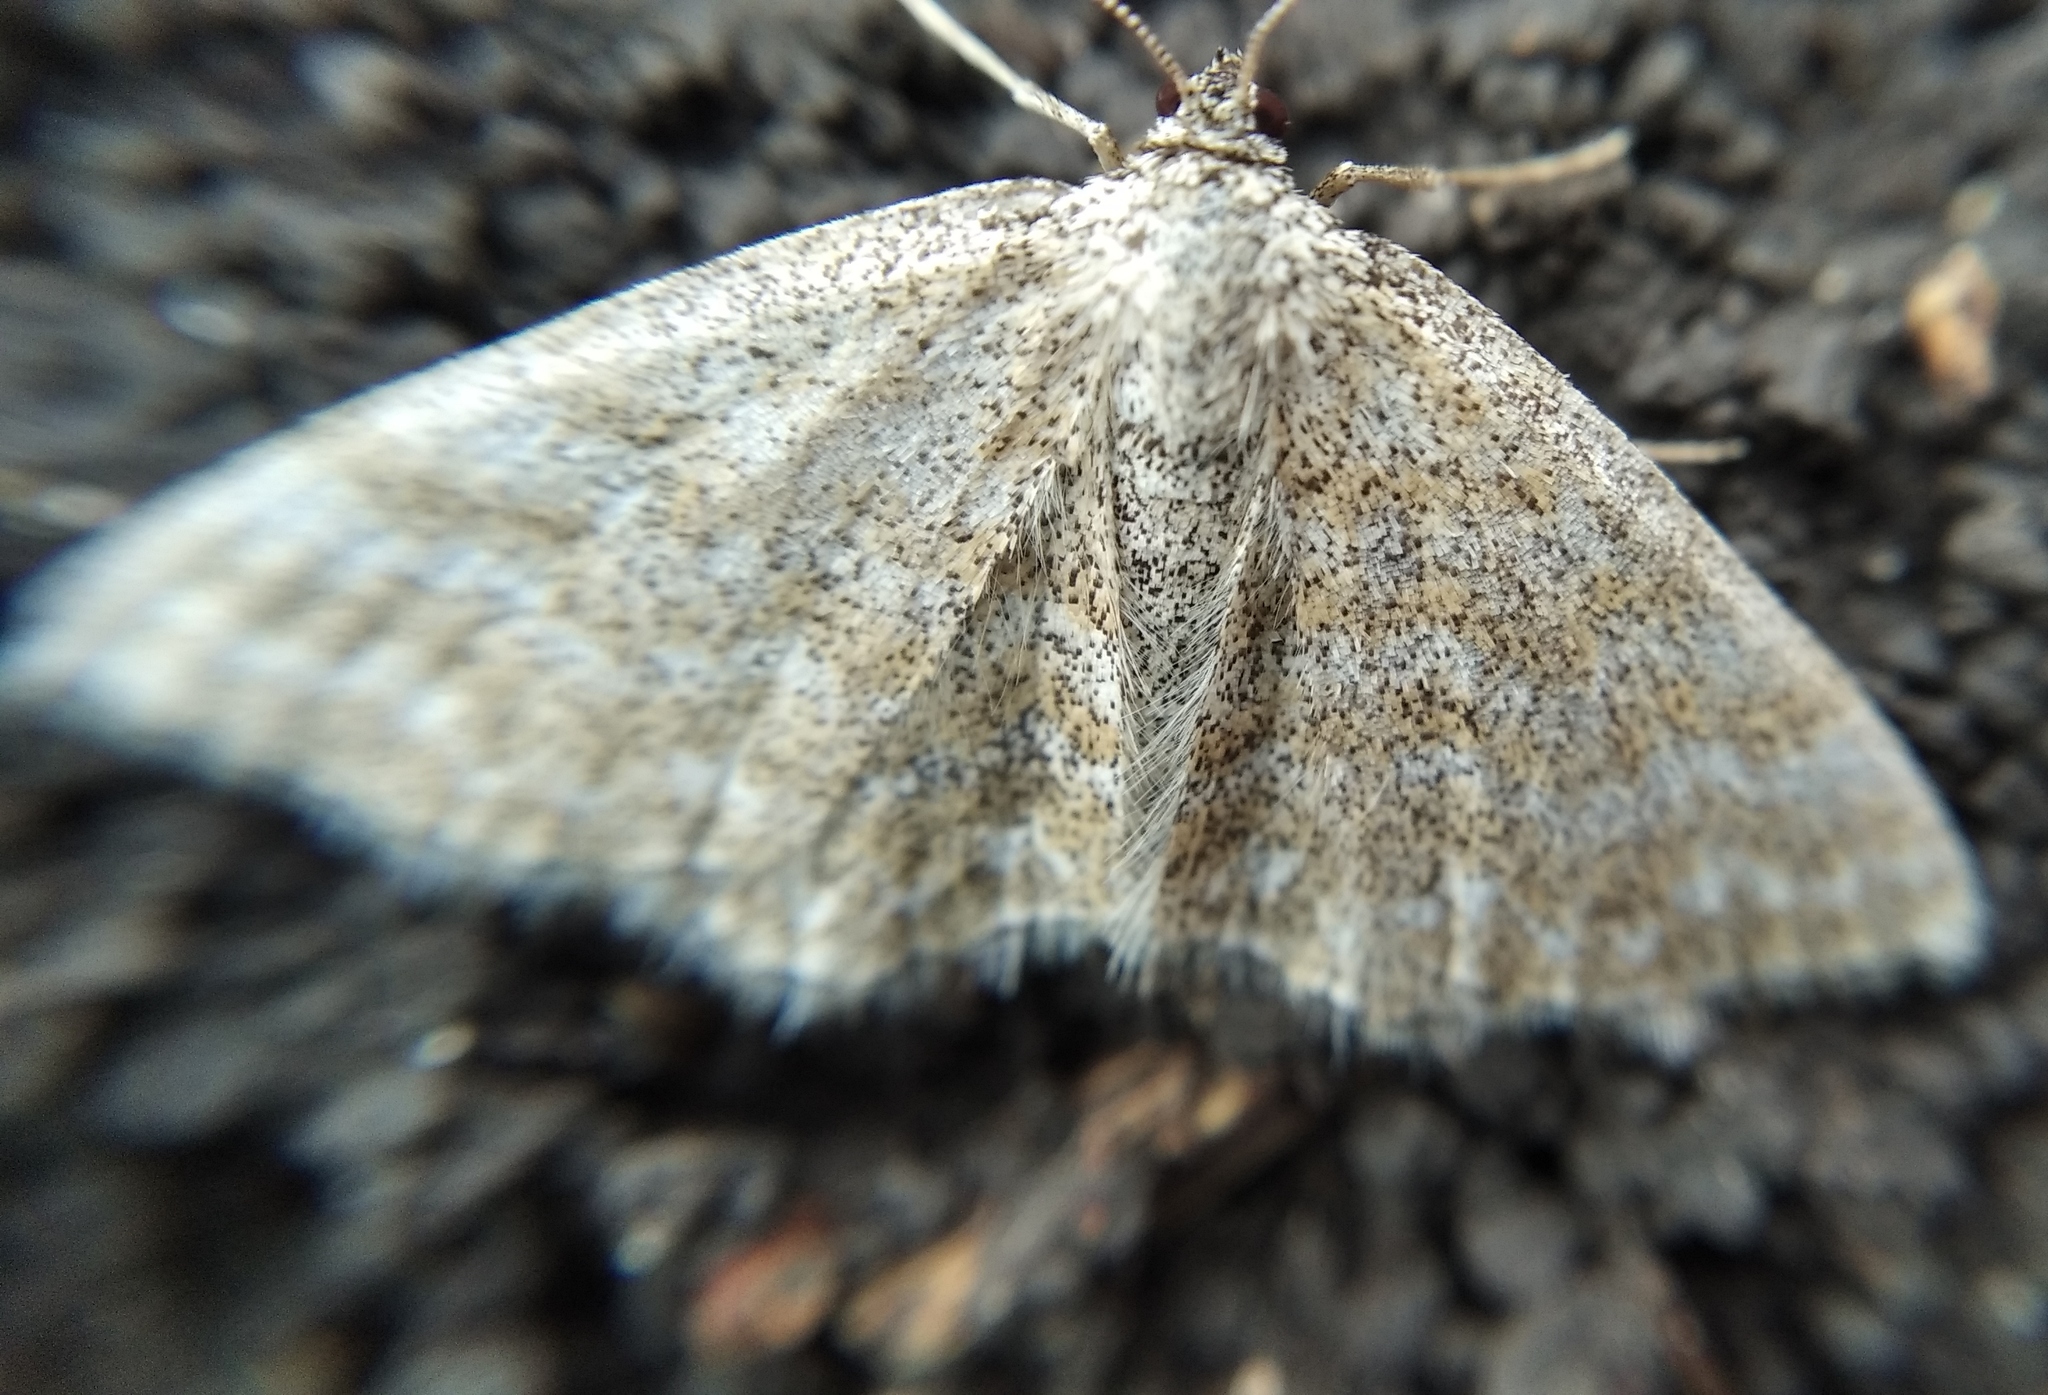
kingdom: Animalia
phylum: Arthropoda
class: Insecta
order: Lepidoptera
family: Geometridae
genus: Scopula
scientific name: Scopula immorata
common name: Lewes wave
